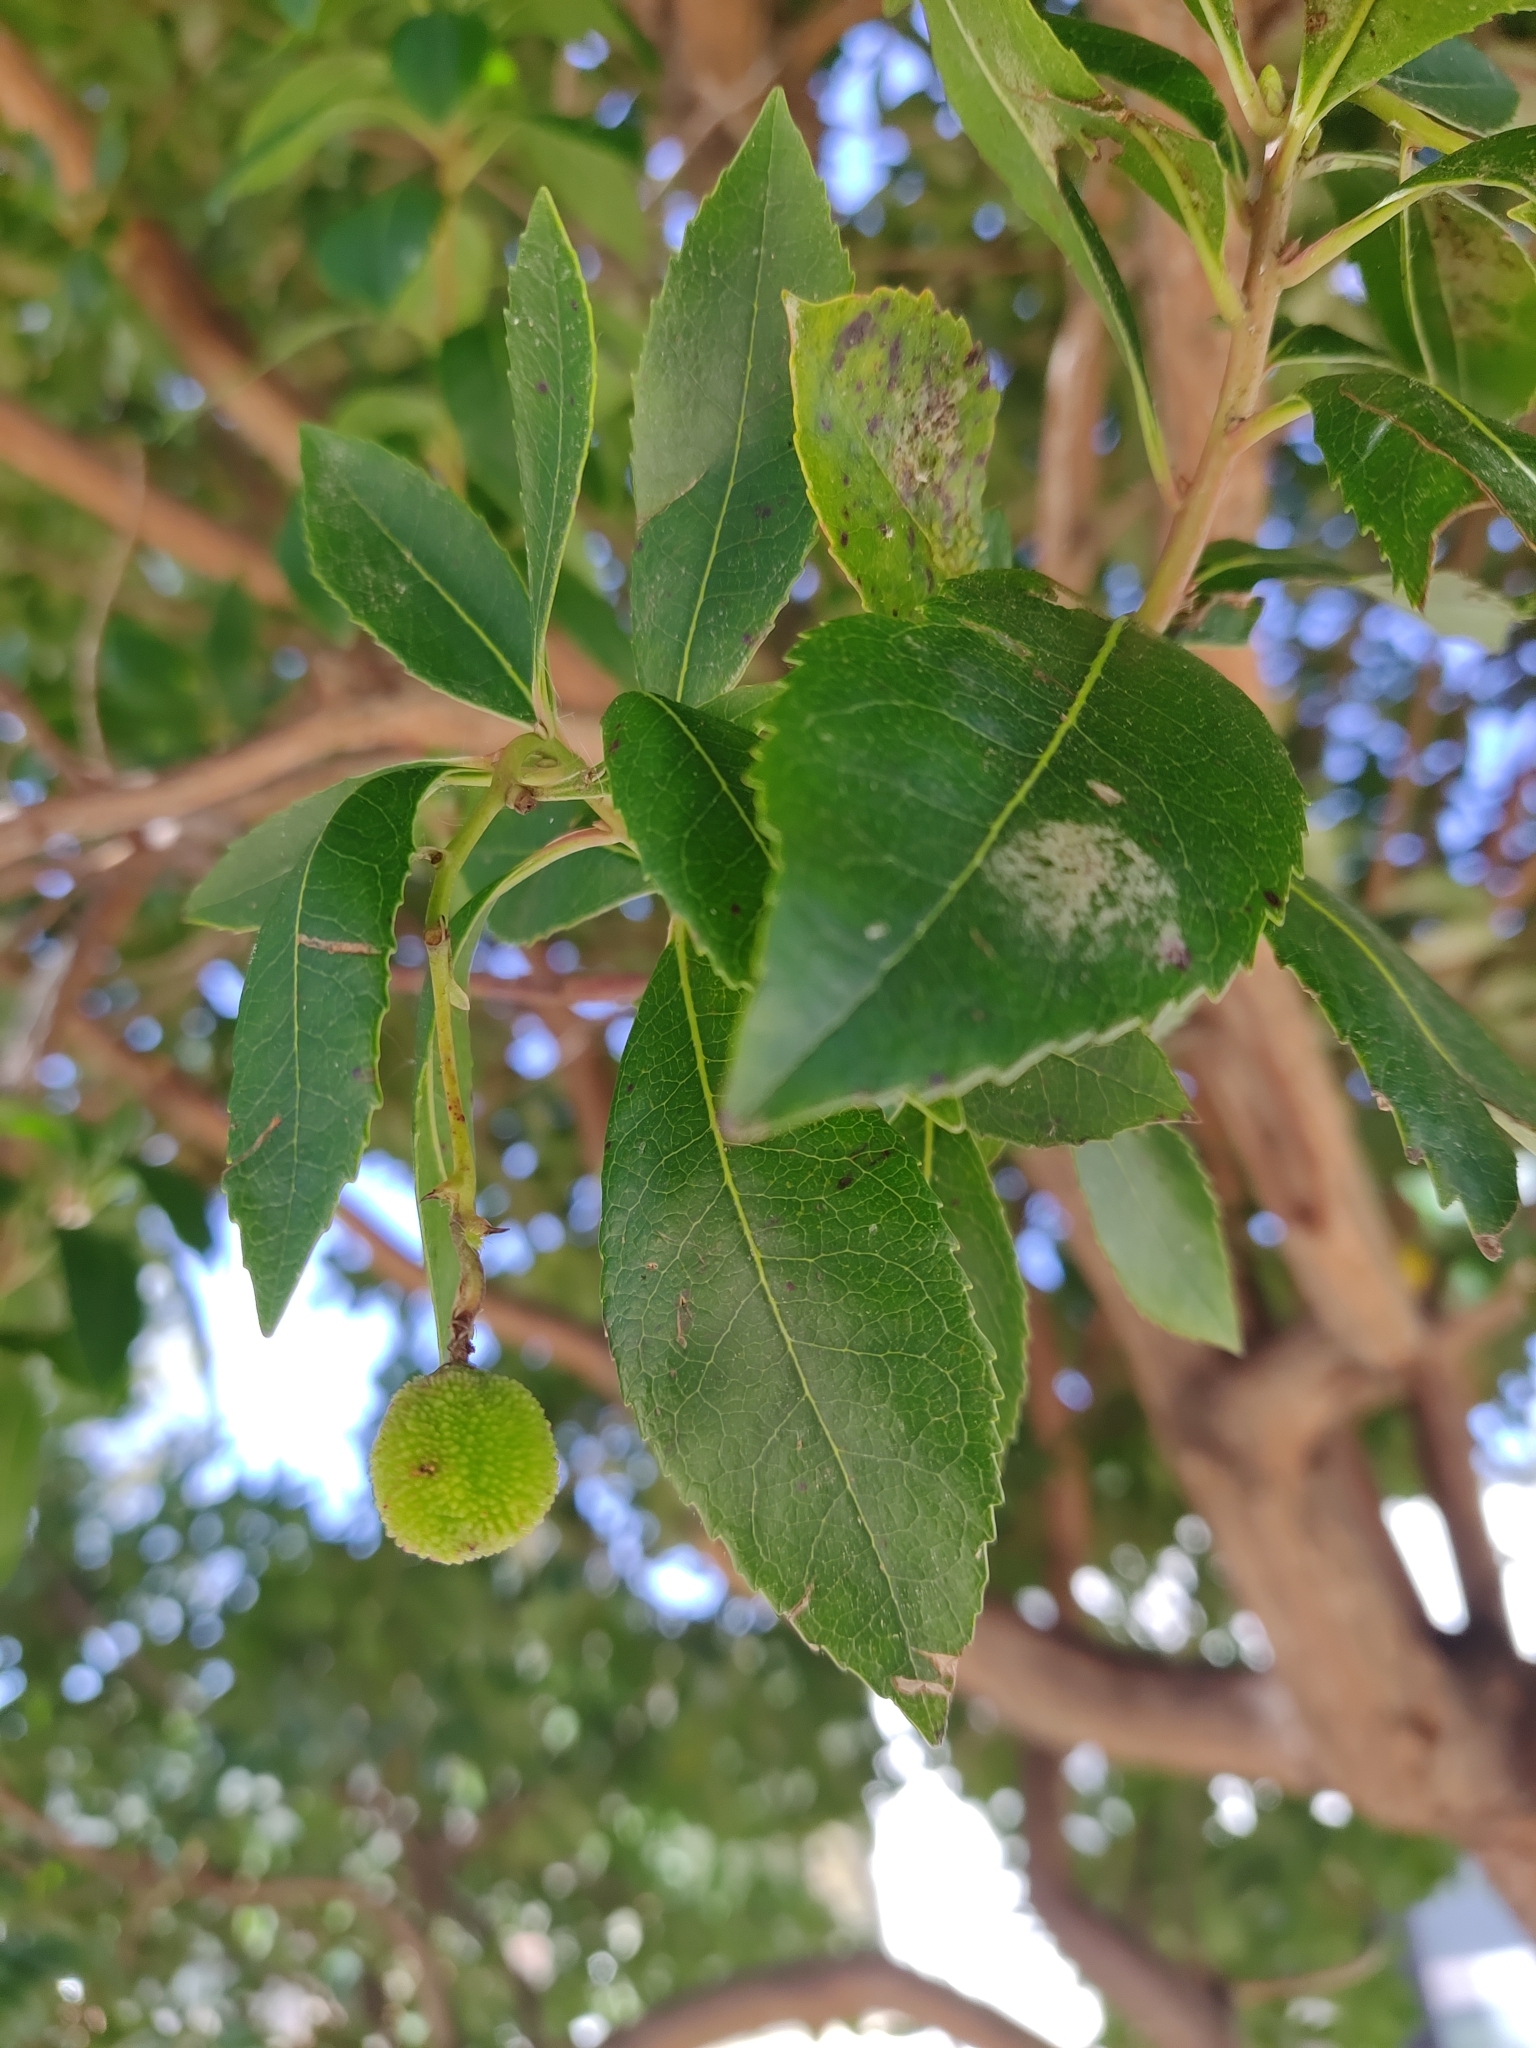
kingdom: Plantae
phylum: Tracheophyta
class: Magnoliopsida
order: Ericales
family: Ericaceae
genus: Arbutus
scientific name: Arbutus unedo
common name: Strawberry-tree
